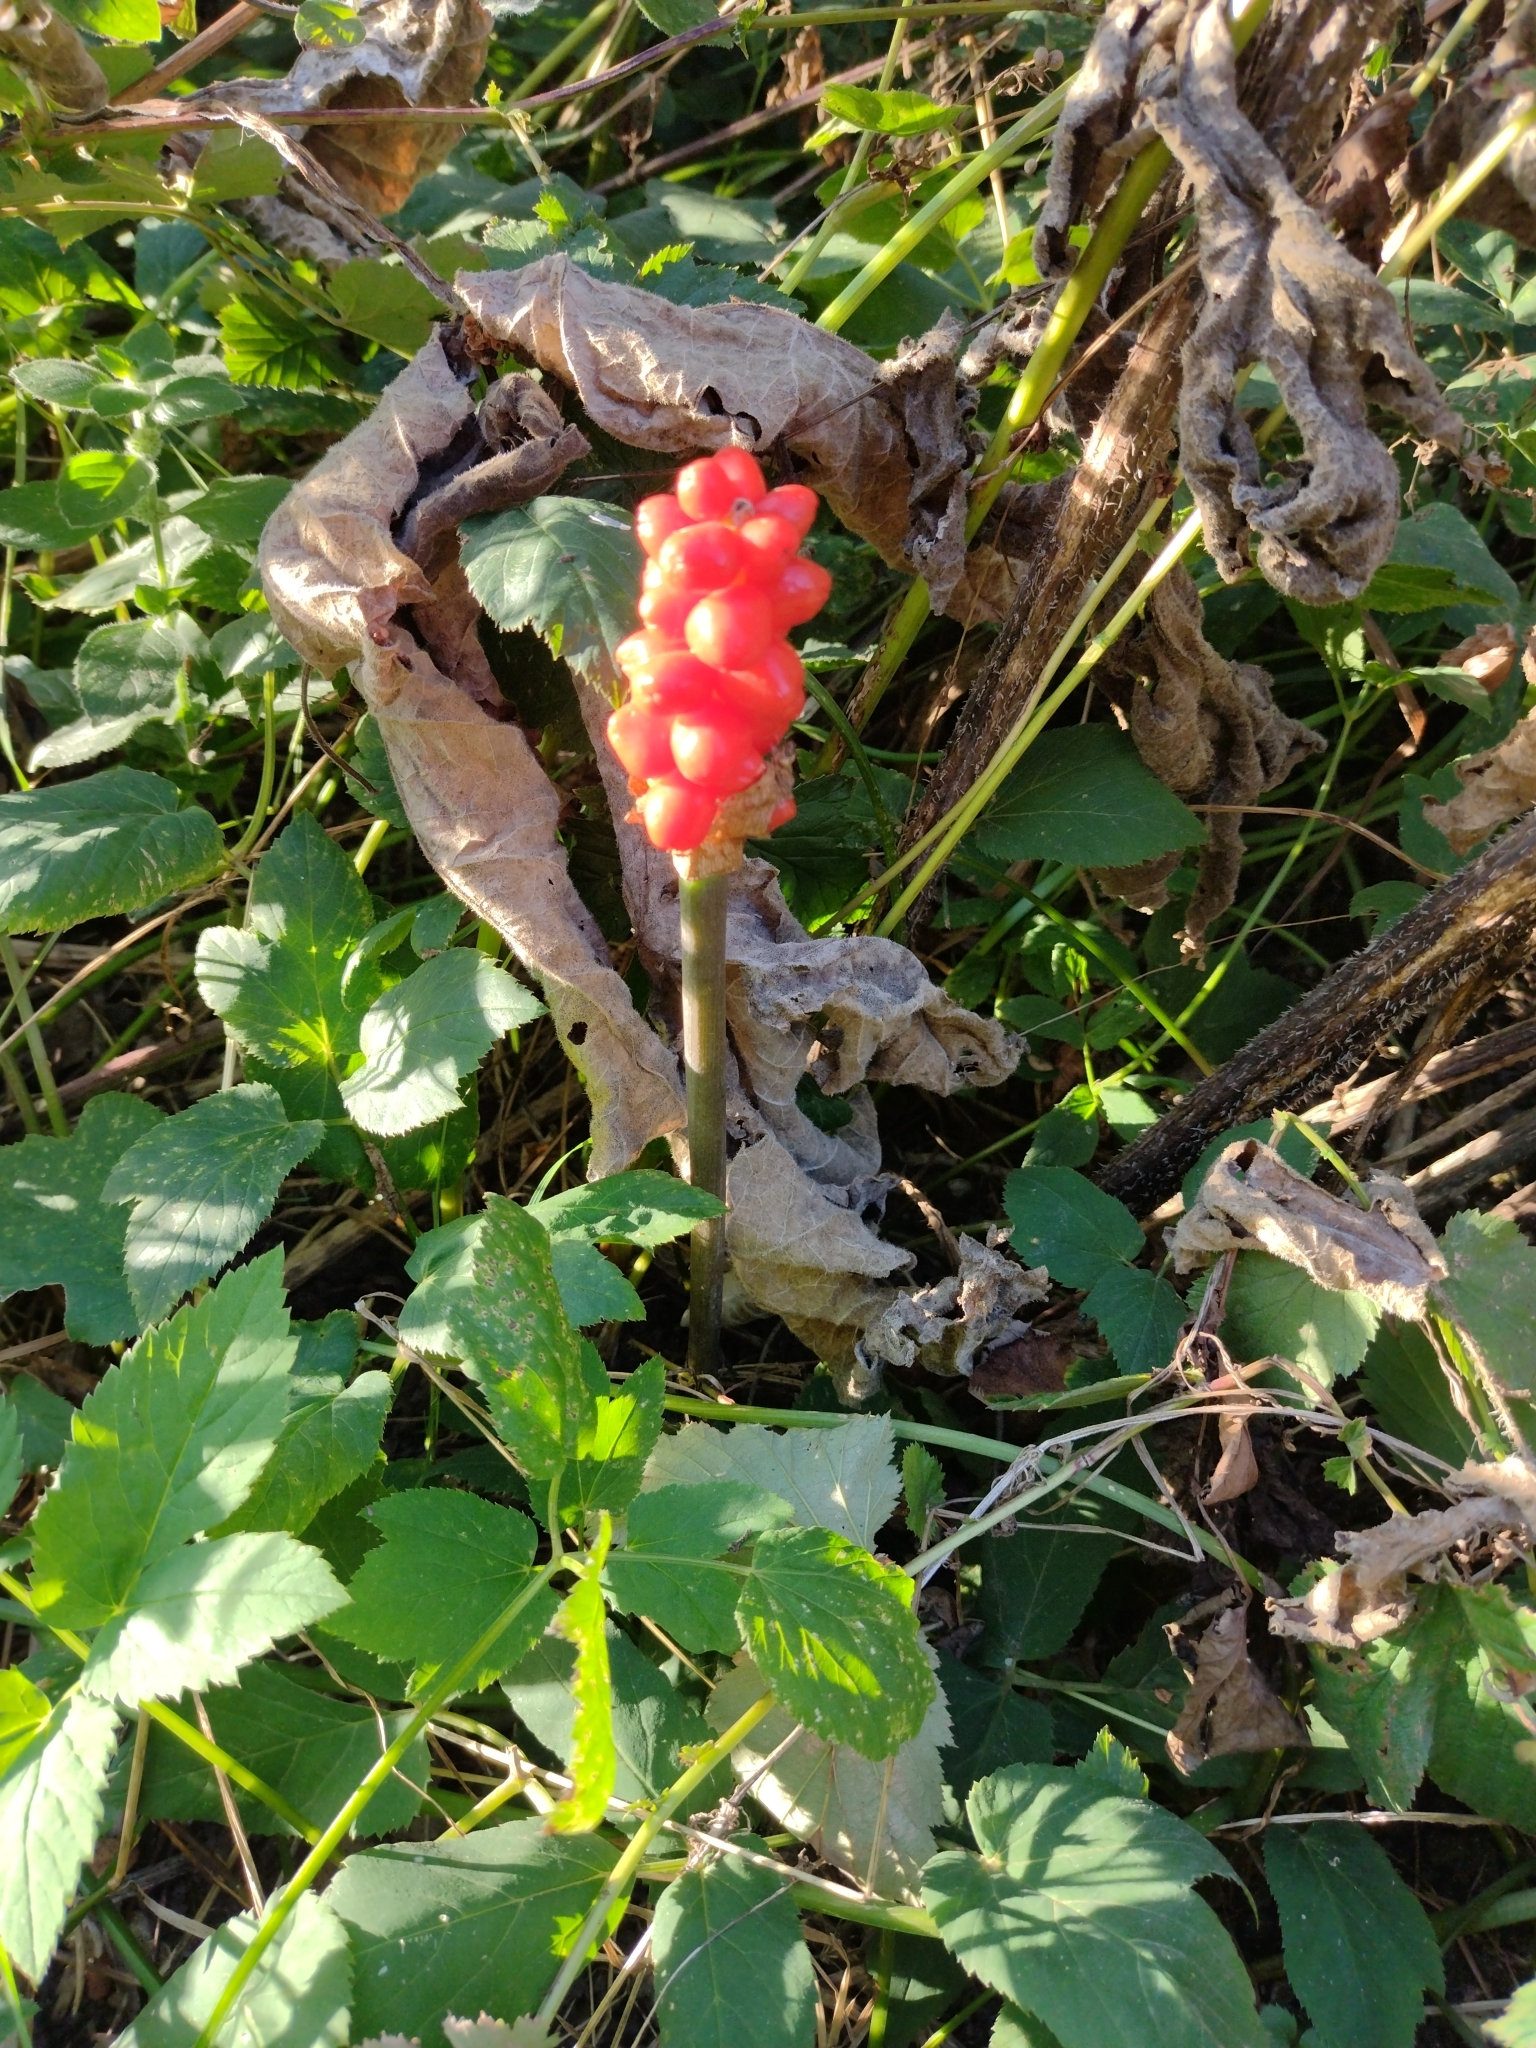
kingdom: Plantae
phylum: Tracheophyta
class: Liliopsida
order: Alismatales
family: Araceae
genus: Arum
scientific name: Arum maculatum
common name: Lords-and-ladies
